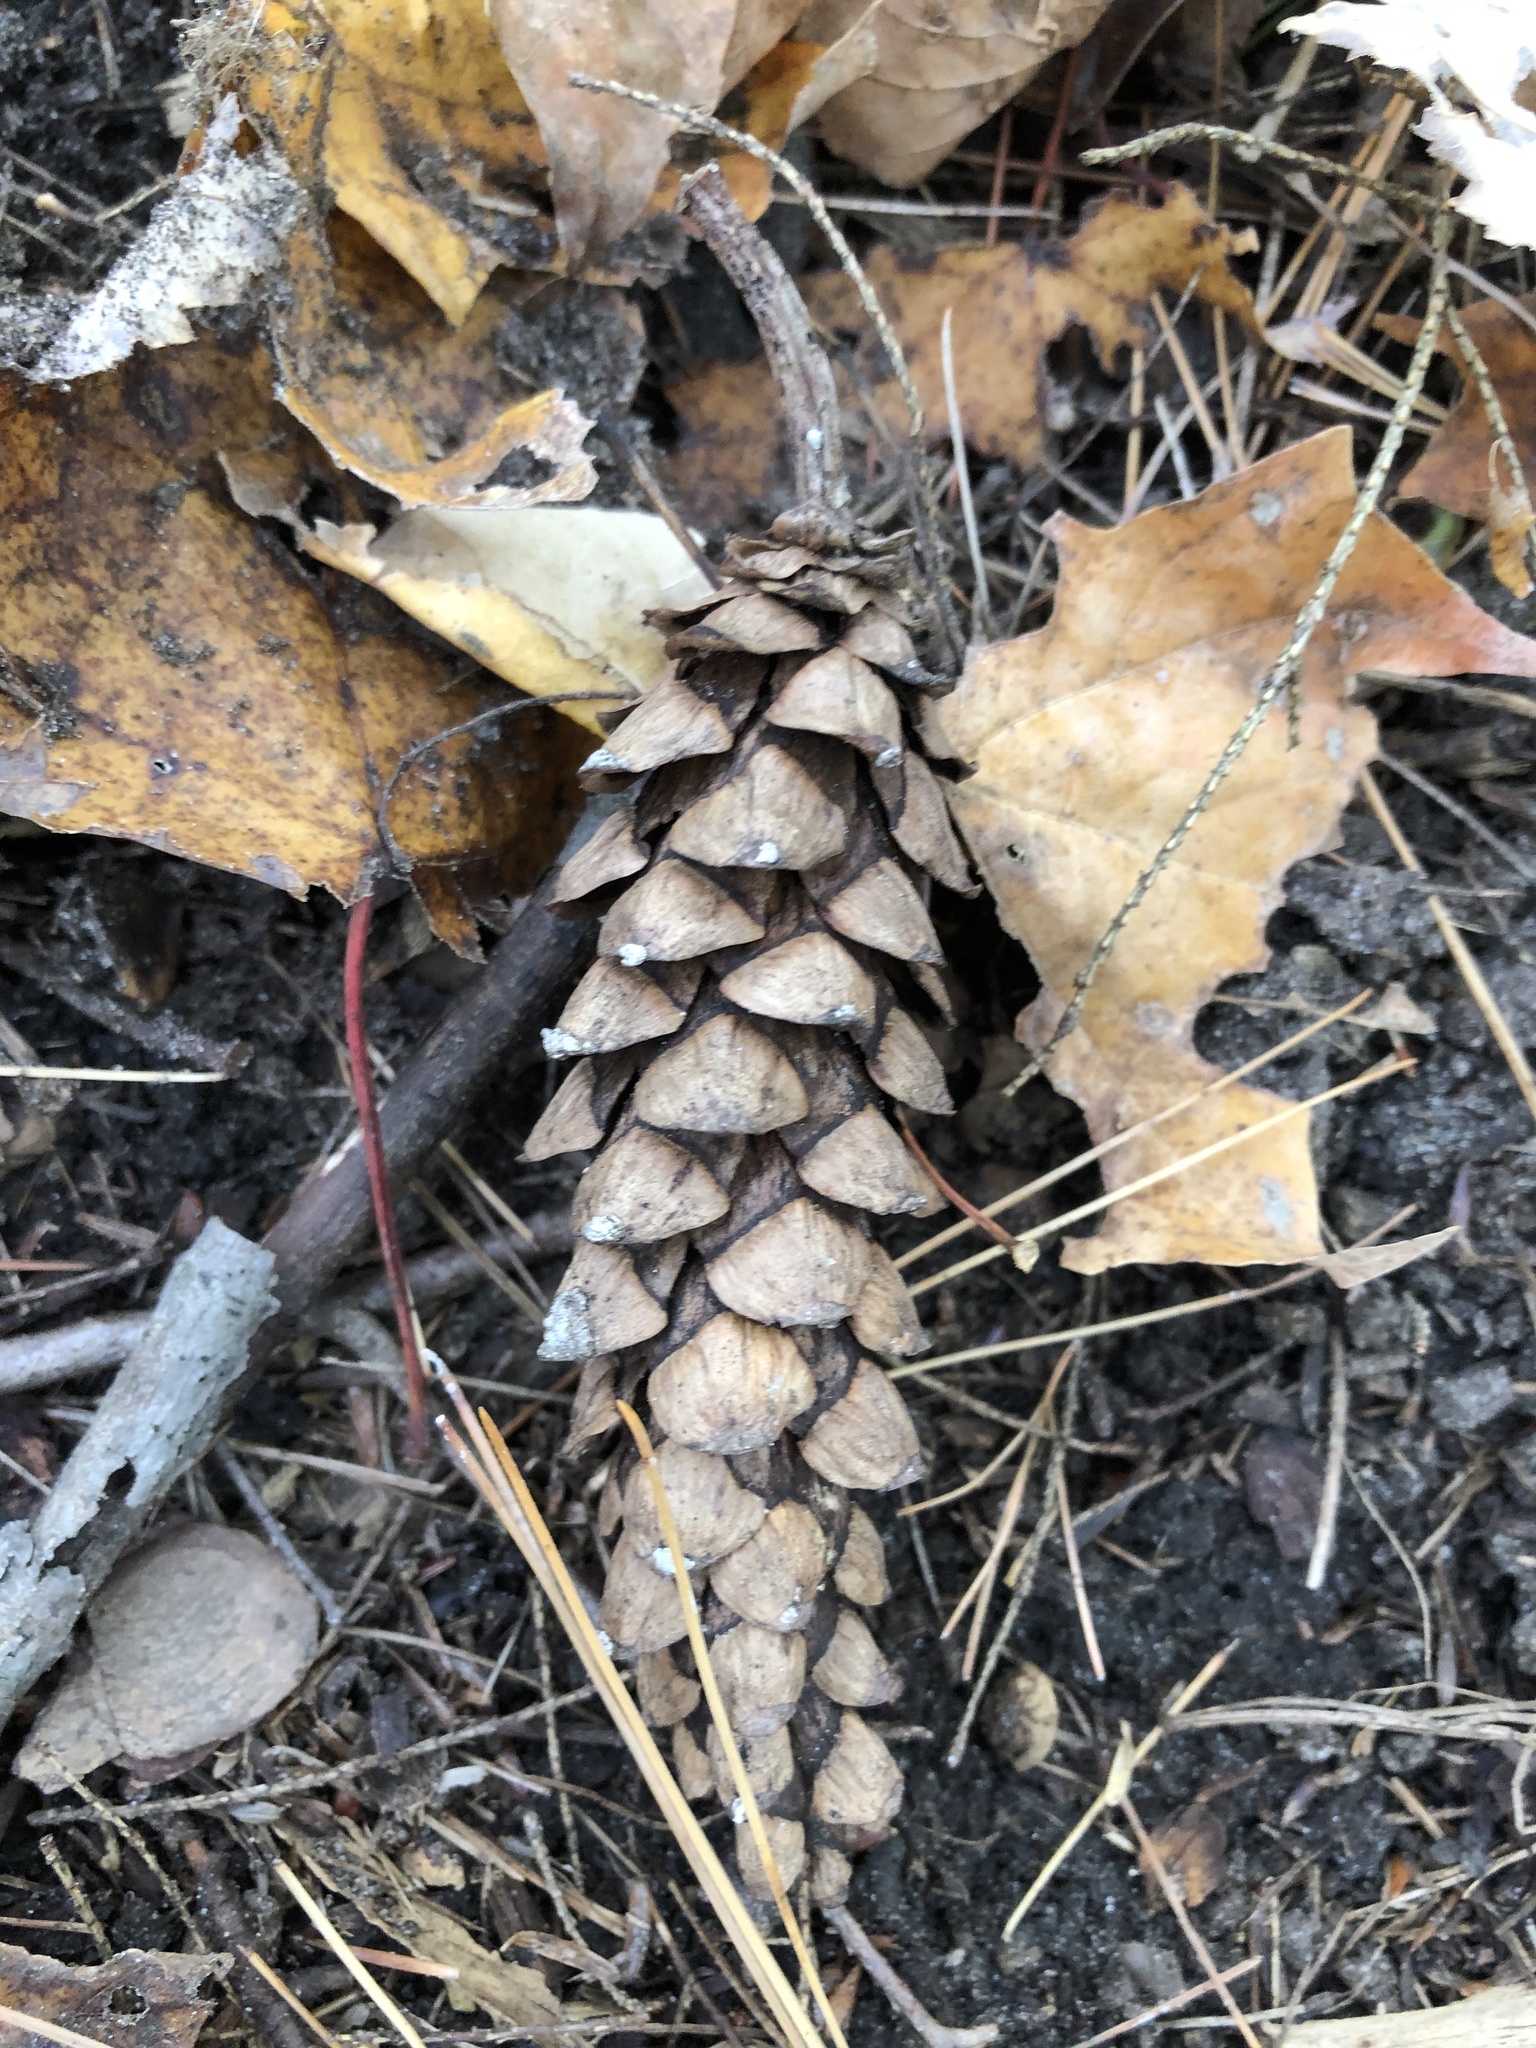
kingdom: Plantae
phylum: Tracheophyta
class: Pinopsida
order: Pinales
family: Pinaceae
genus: Pinus
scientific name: Pinus strobus
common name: Weymouth pine
